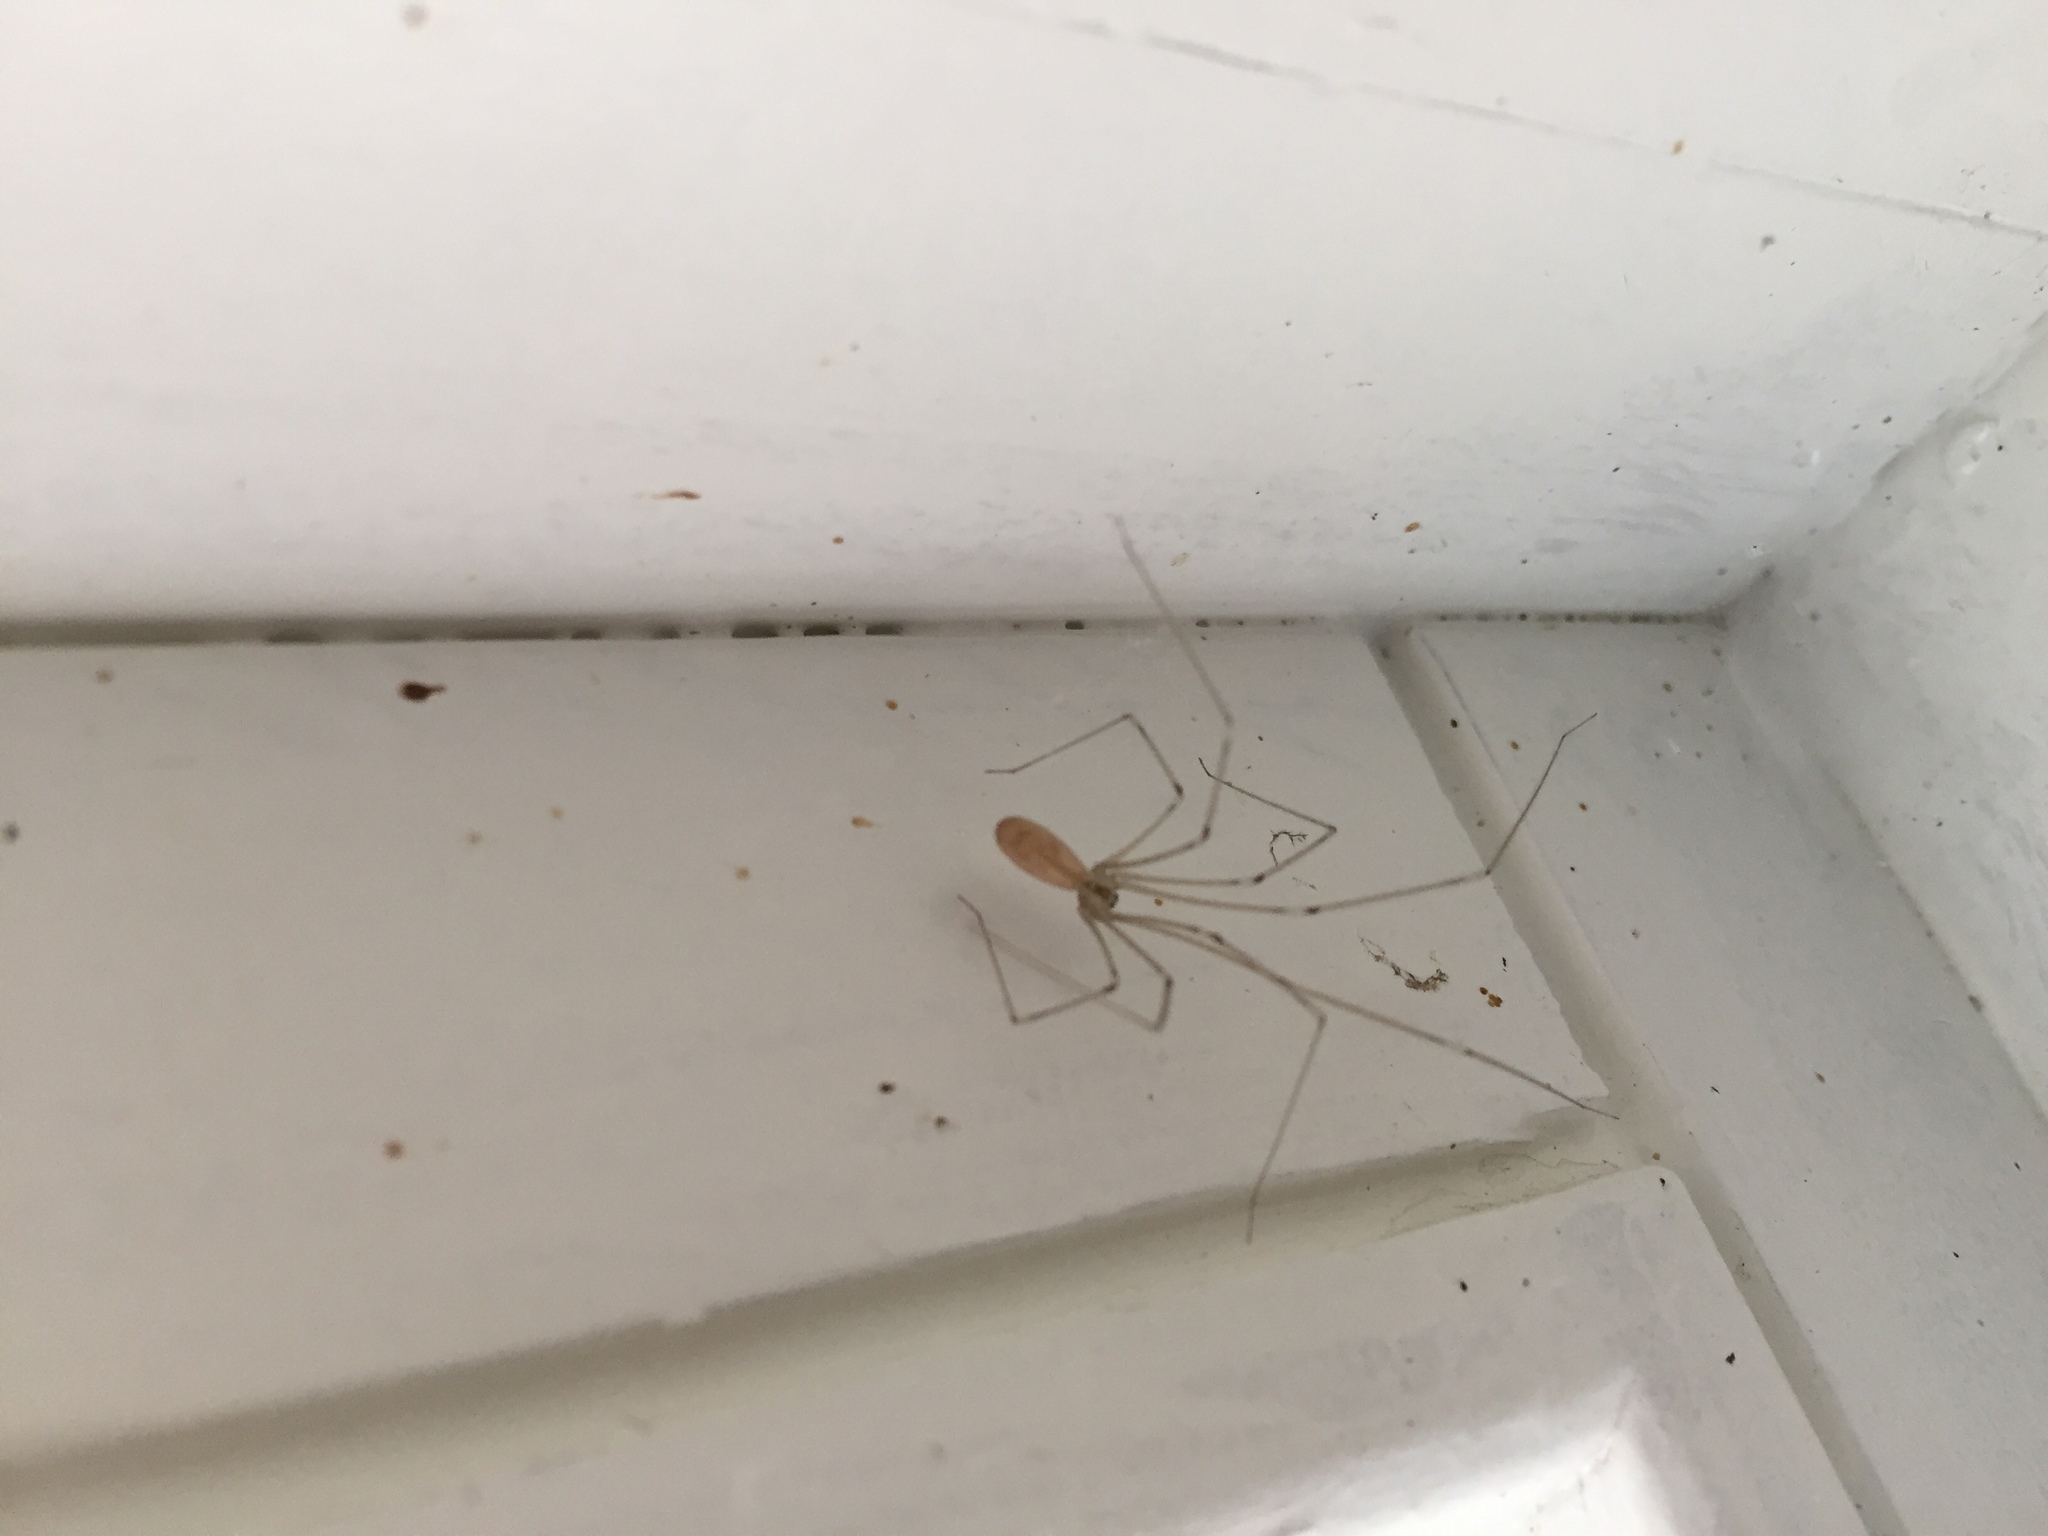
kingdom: Animalia
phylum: Arthropoda
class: Arachnida
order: Araneae
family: Pholcidae
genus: Pholcus
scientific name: Pholcus phalangioides
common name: Longbodied cellar spider
